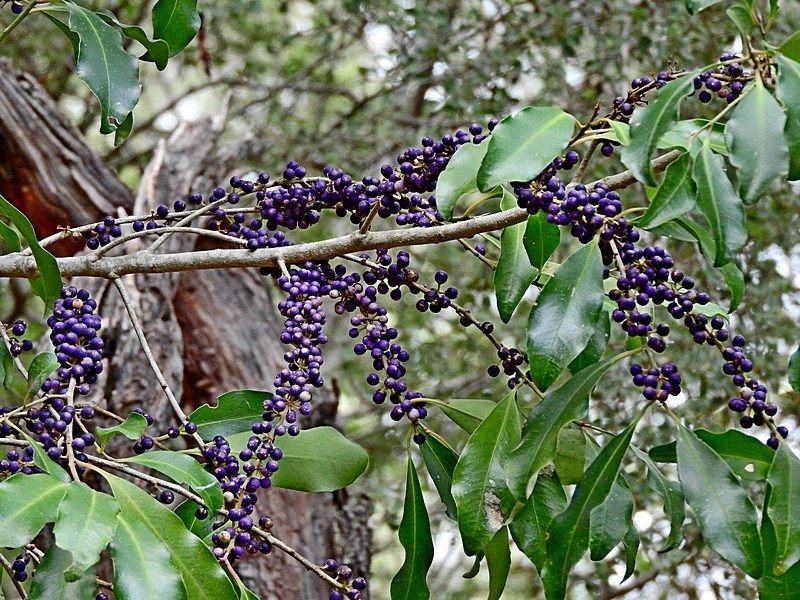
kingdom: Plantae
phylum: Tracheophyta
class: Magnoliopsida
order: Ericales
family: Primulaceae
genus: Myrsine
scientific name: Myrsine howittiana
